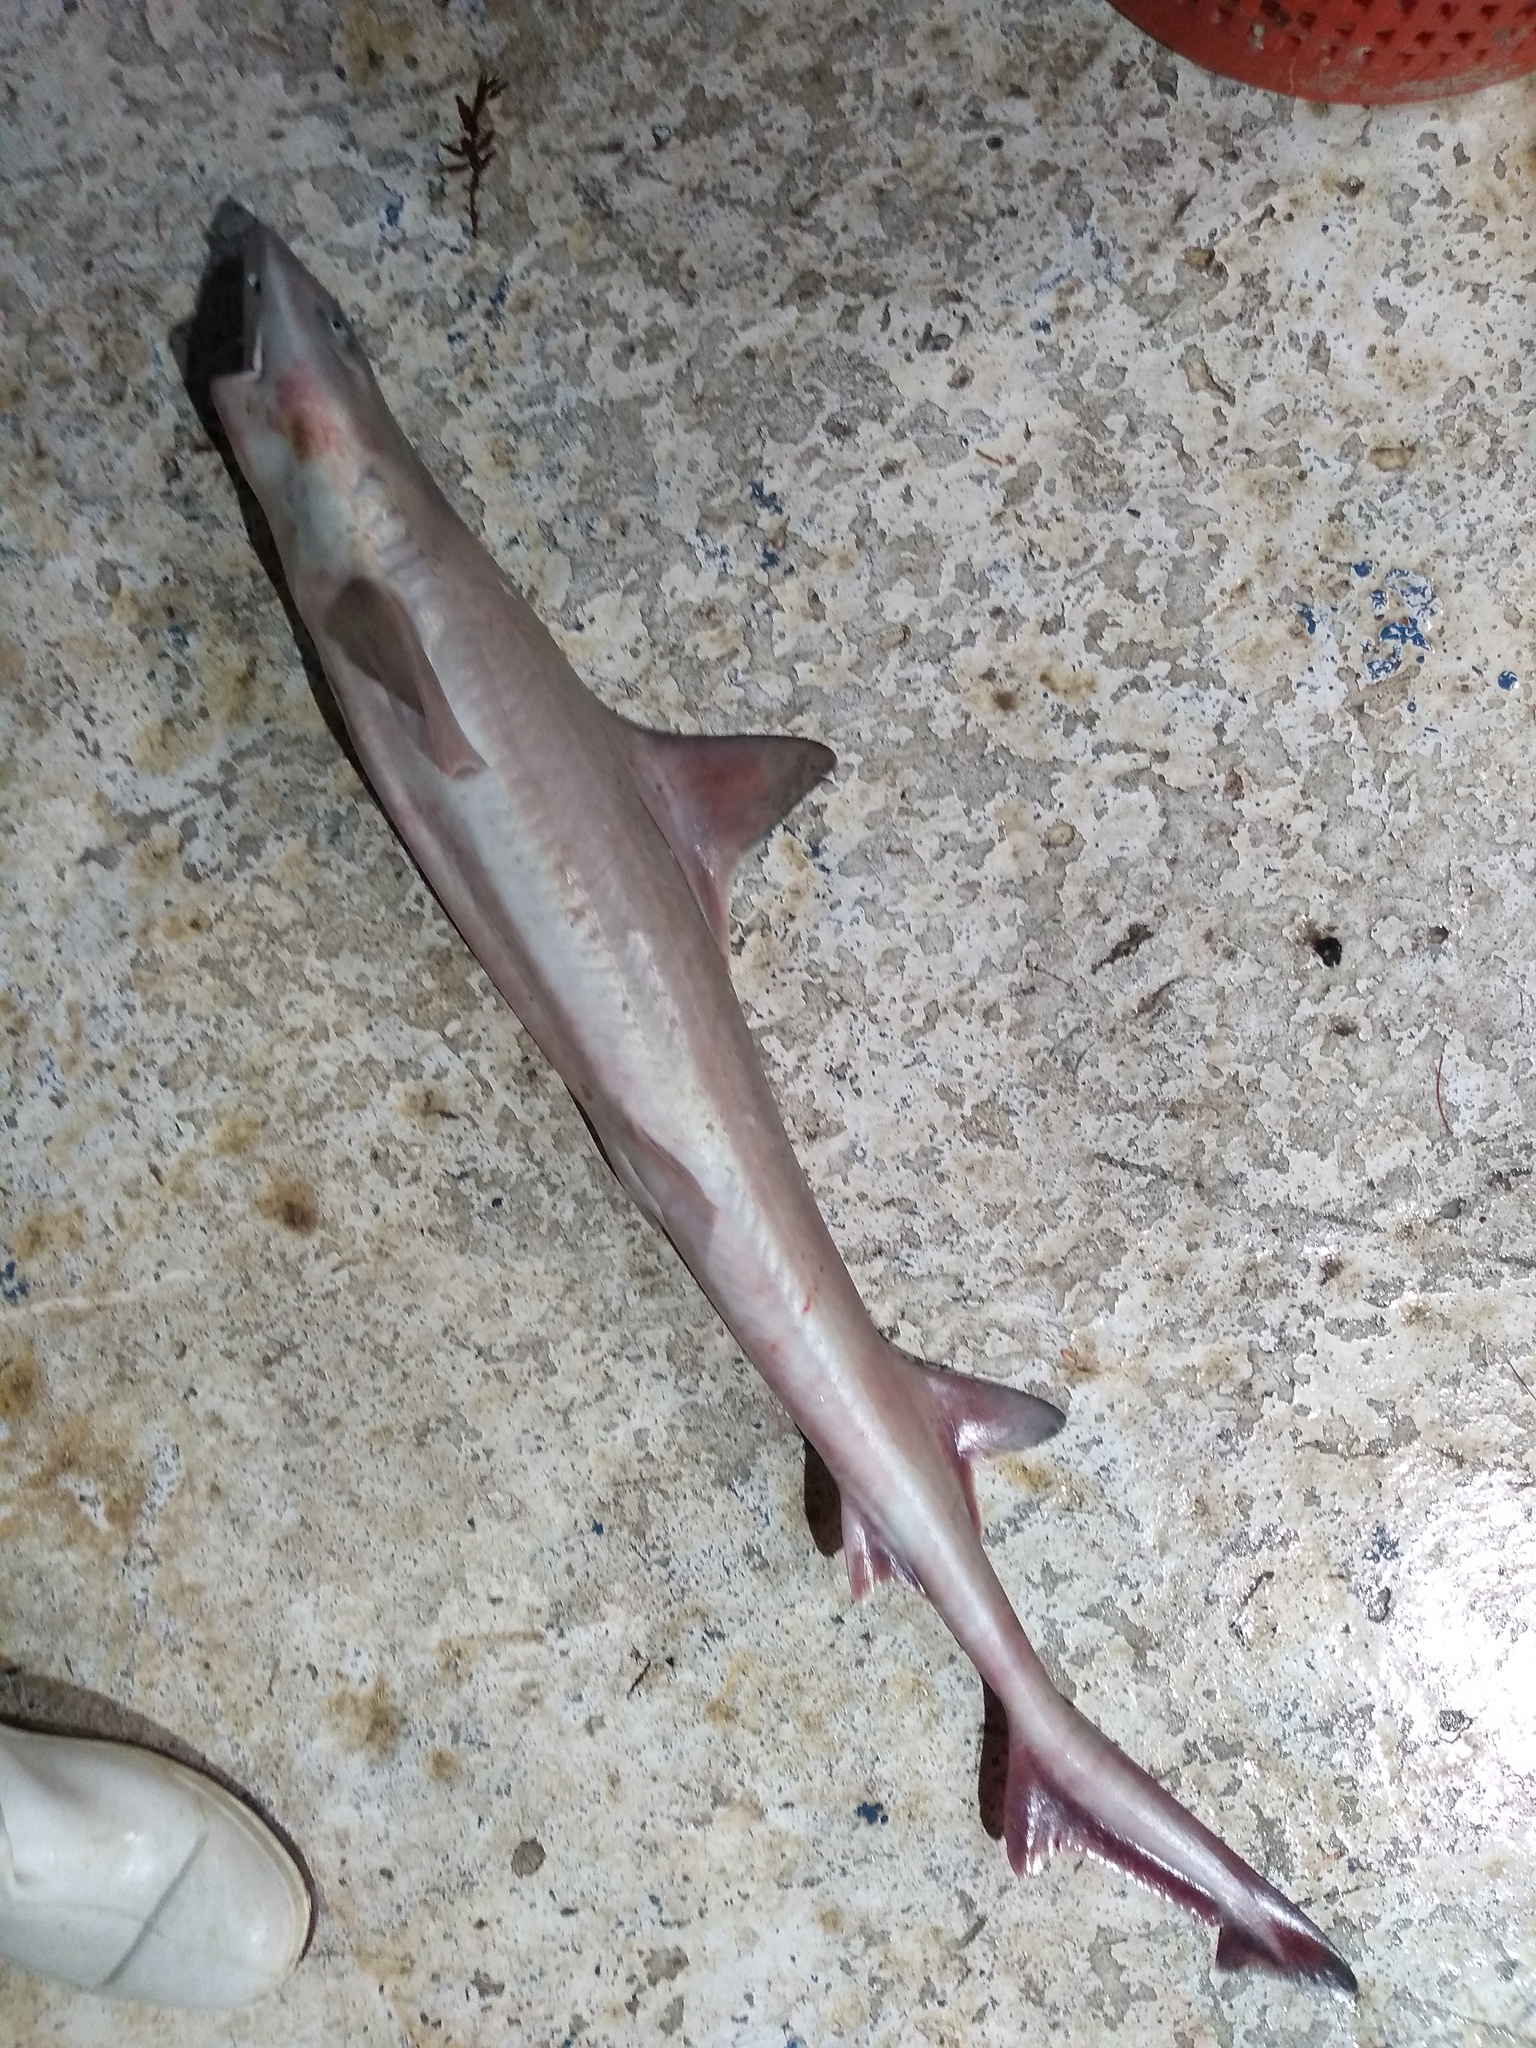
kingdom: Animalia
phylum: Chordata
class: Elasmobranchii
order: Carcharhiniformes
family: Triakidae
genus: Mustelus
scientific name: Mustelus norrisi
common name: Florida smooth-hound
